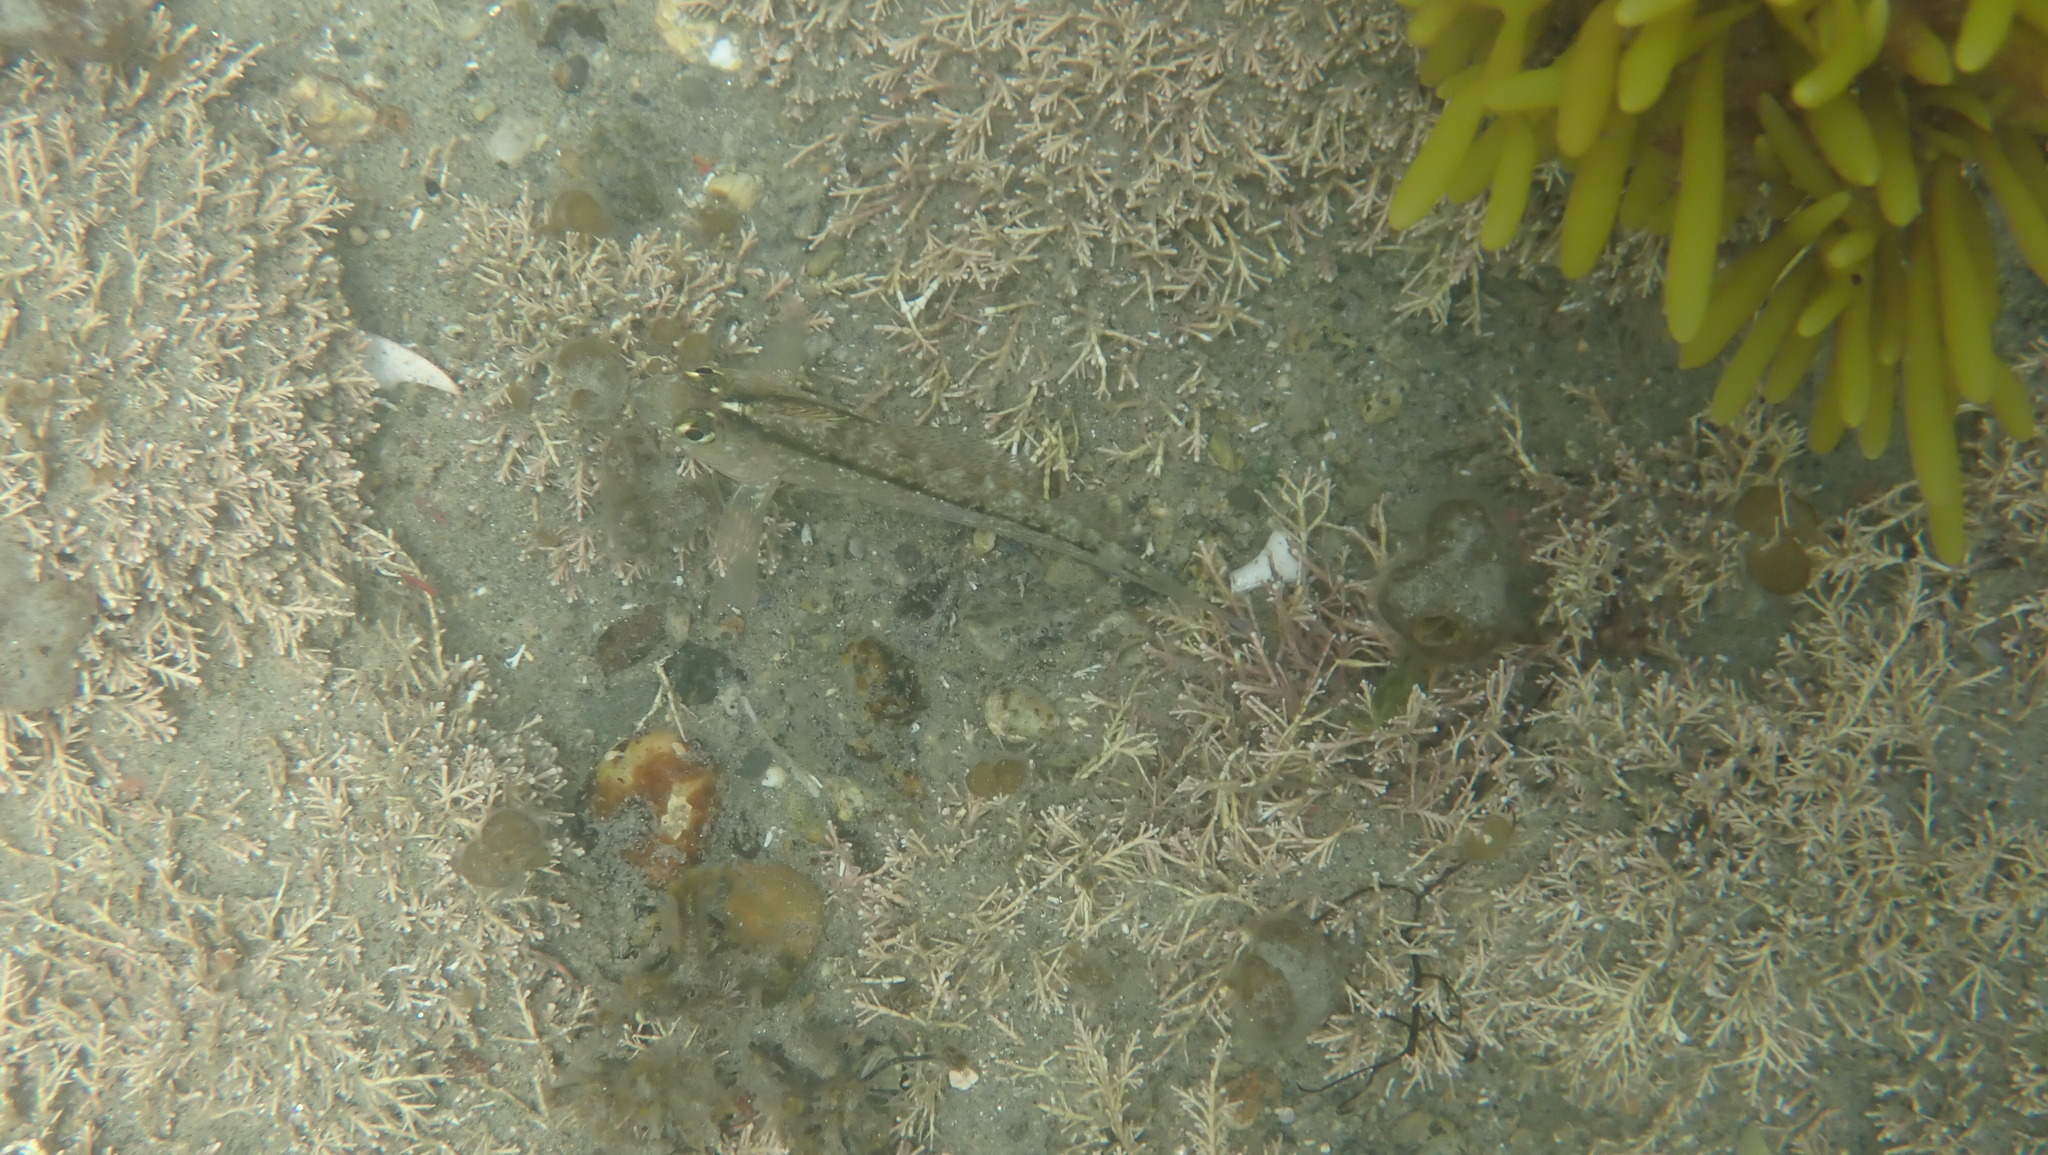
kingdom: Animalia
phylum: Chordata
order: Perciformes
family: Tripterygiidae
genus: Forsterygion
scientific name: Forsterygion lapillum
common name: Common triplefin
